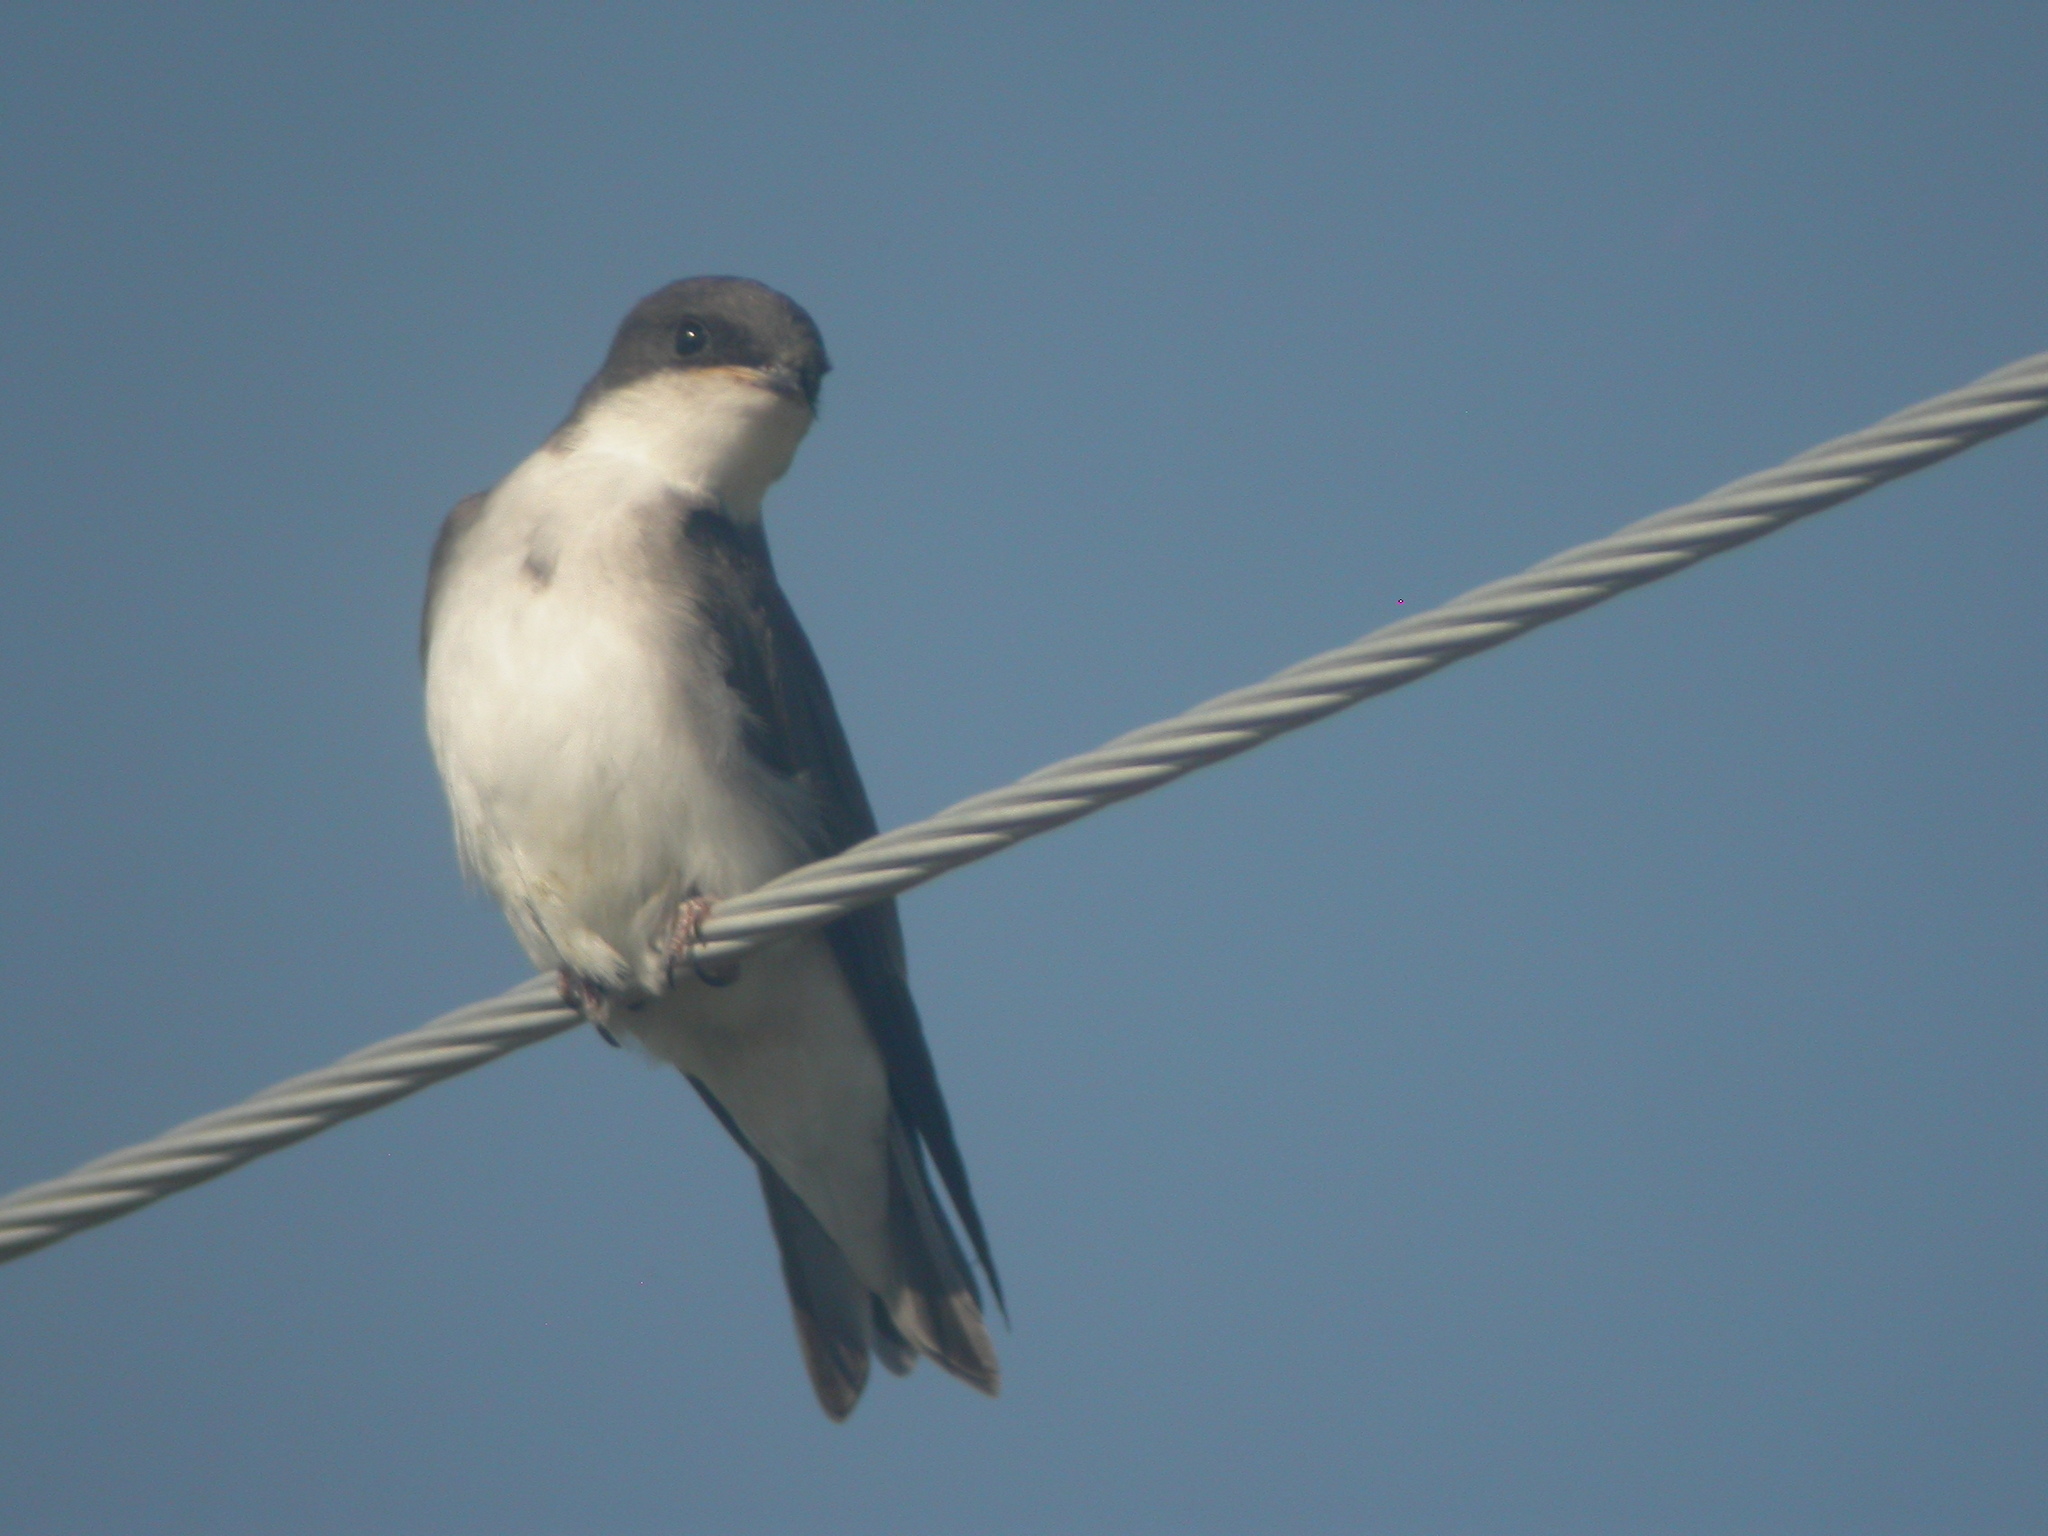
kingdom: Animalia
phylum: Chordata
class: Aves
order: Passeriformes
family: Hirundinidae
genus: Tachycineta
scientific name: Tachycineta bicolor
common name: Tree swallow
